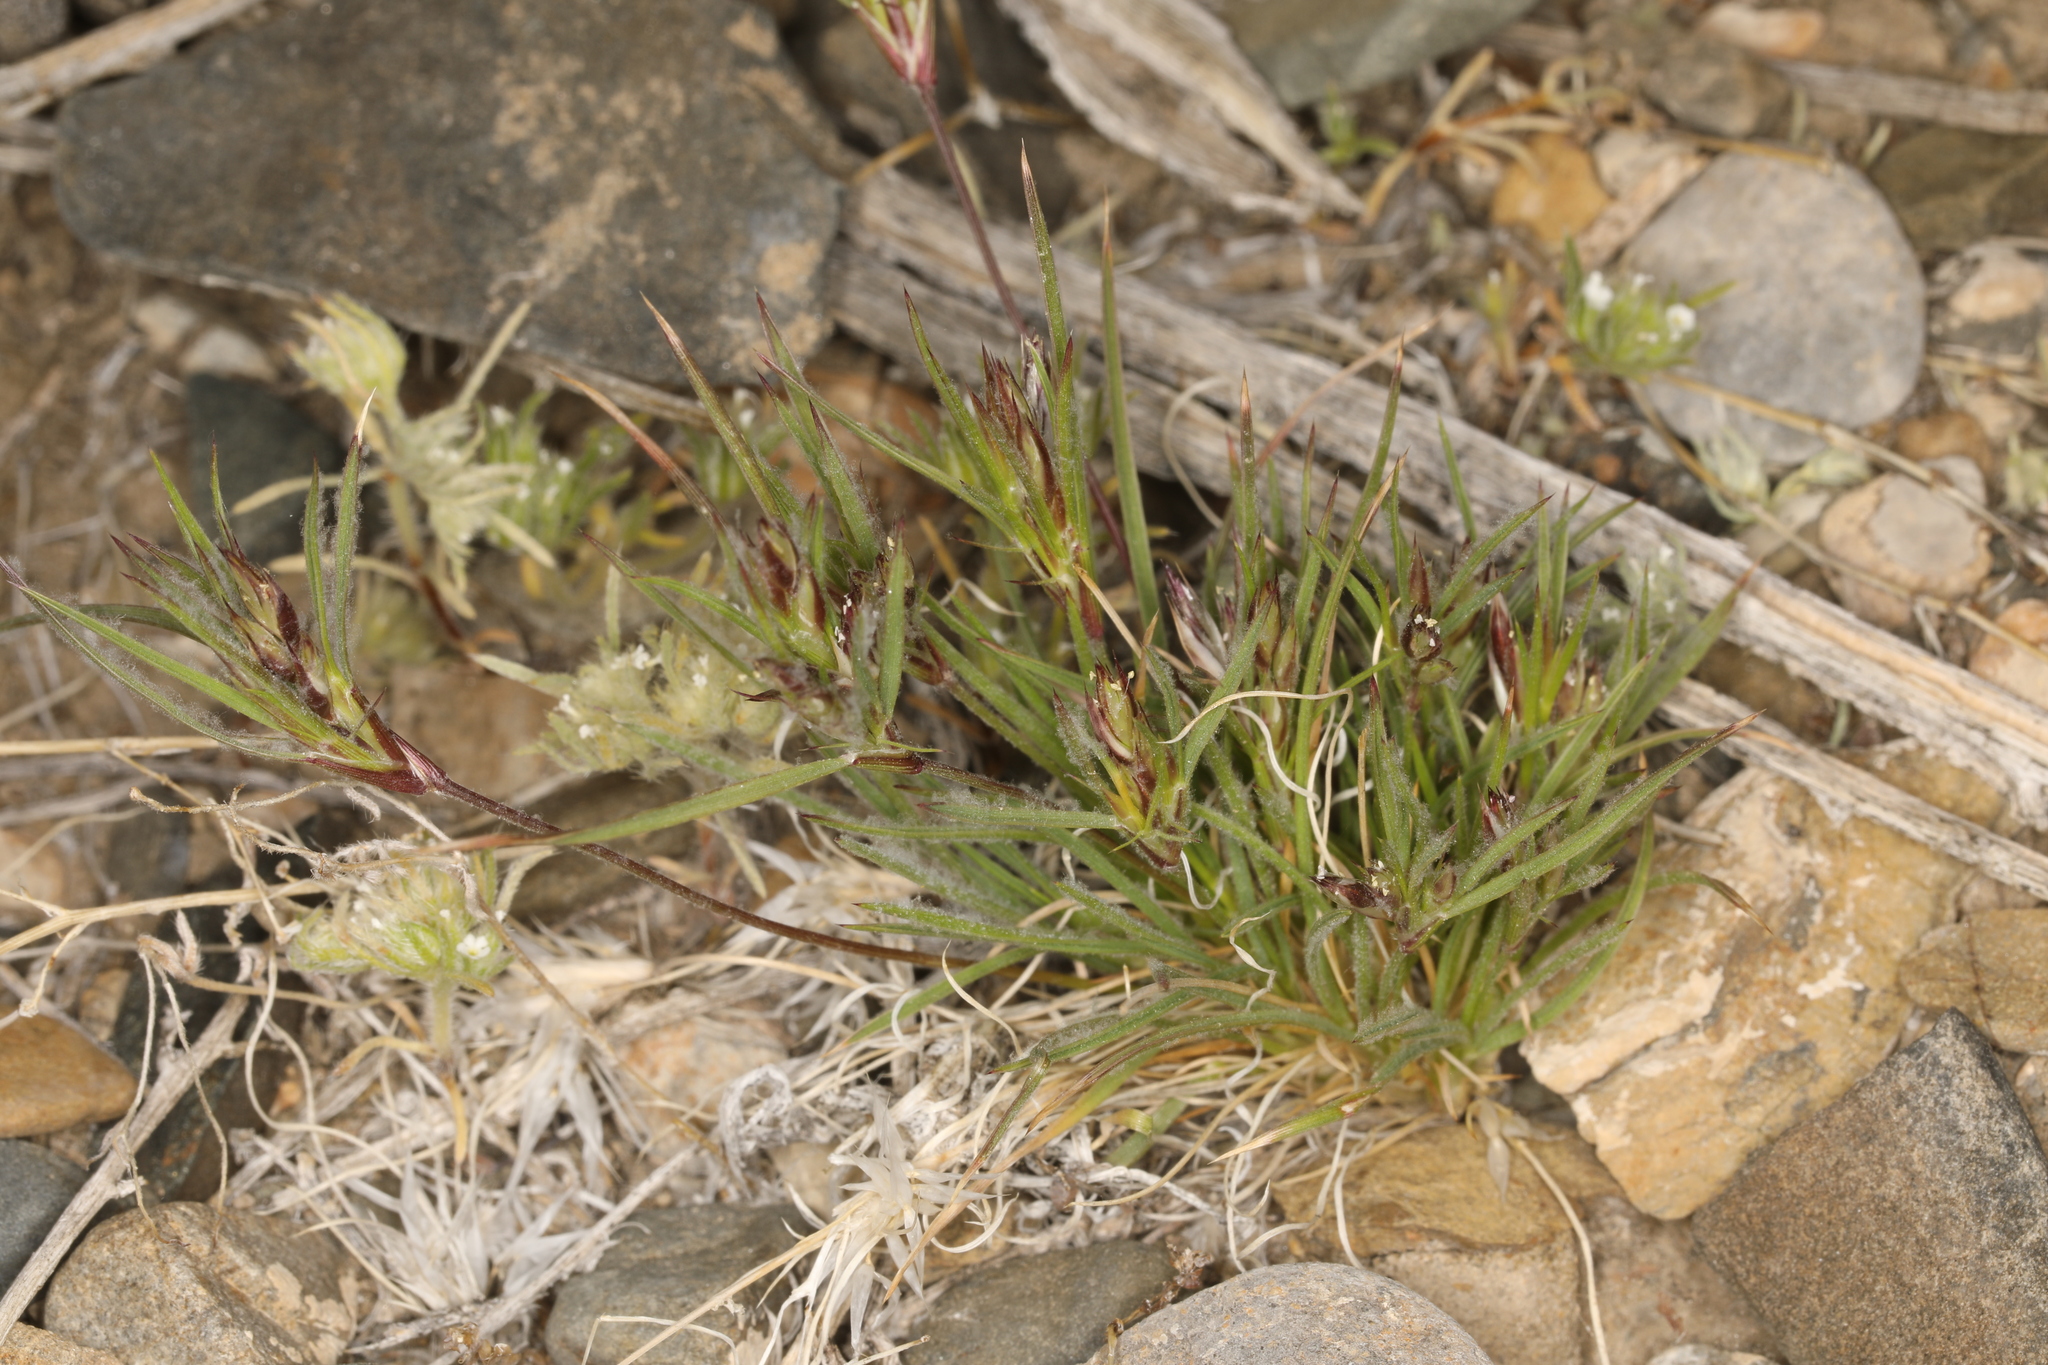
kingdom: Plantae
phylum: Tracheophyta
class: Liliopsida
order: Poales
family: Poaceae
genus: Dasyochloa
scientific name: Dasyochloa pulchella
